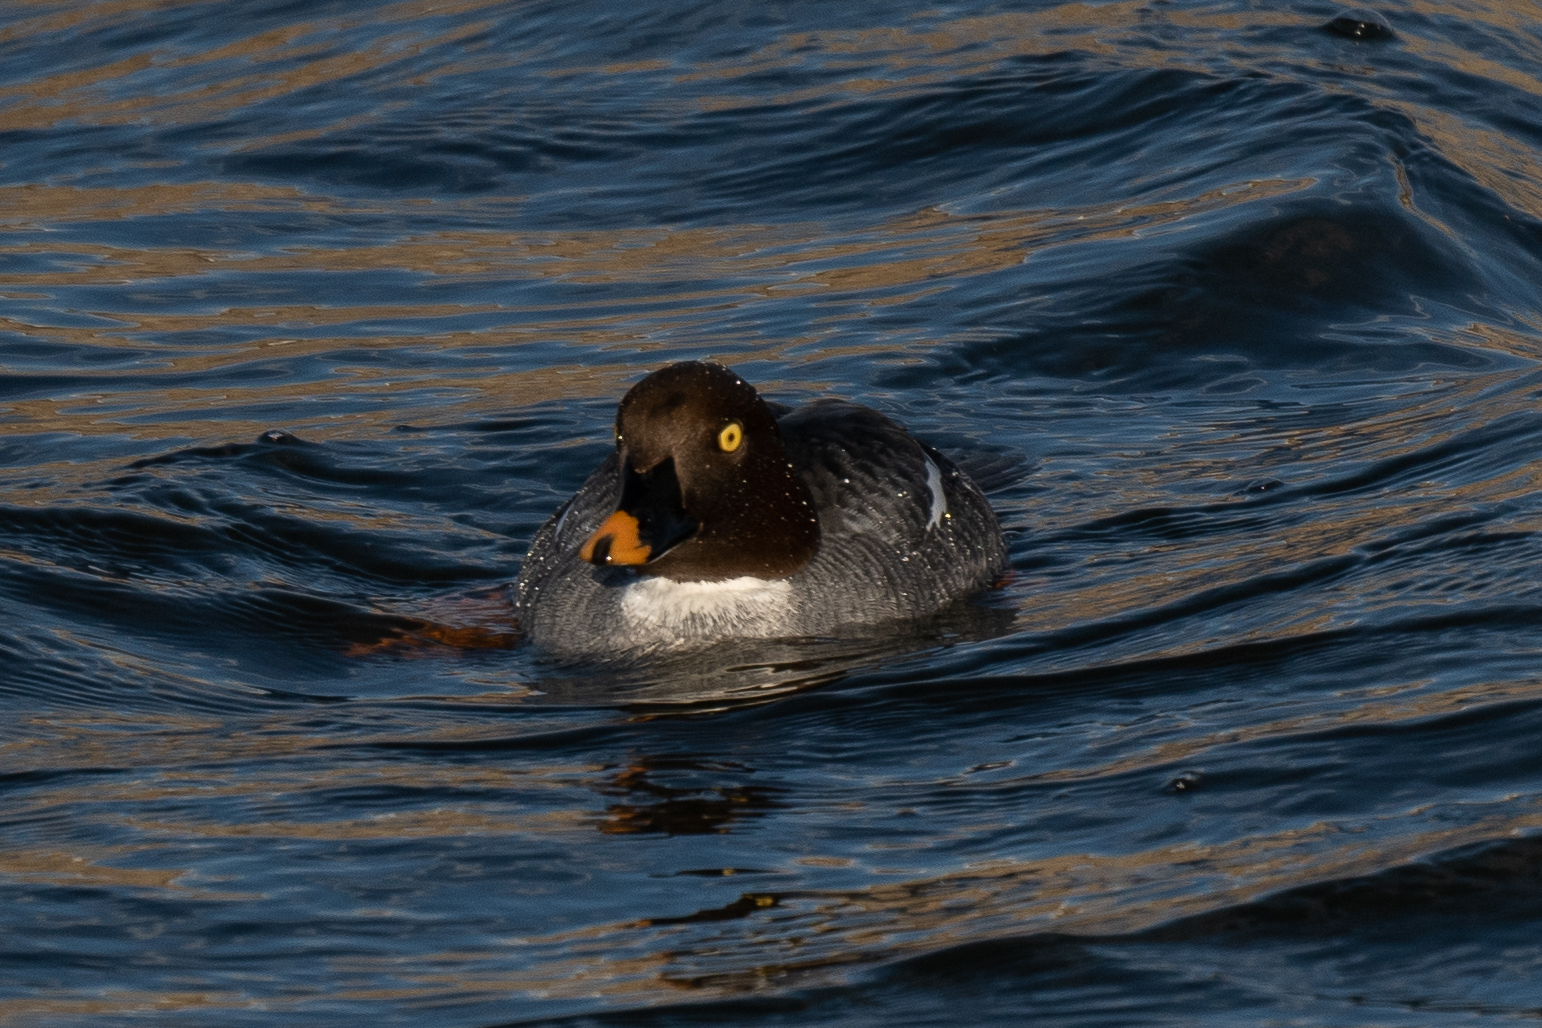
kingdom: Animalia
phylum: Chordata
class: Aves
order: Anseriformes
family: Anatidae
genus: Bucephala
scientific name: Bucephala clangula
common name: Common goldeneye
